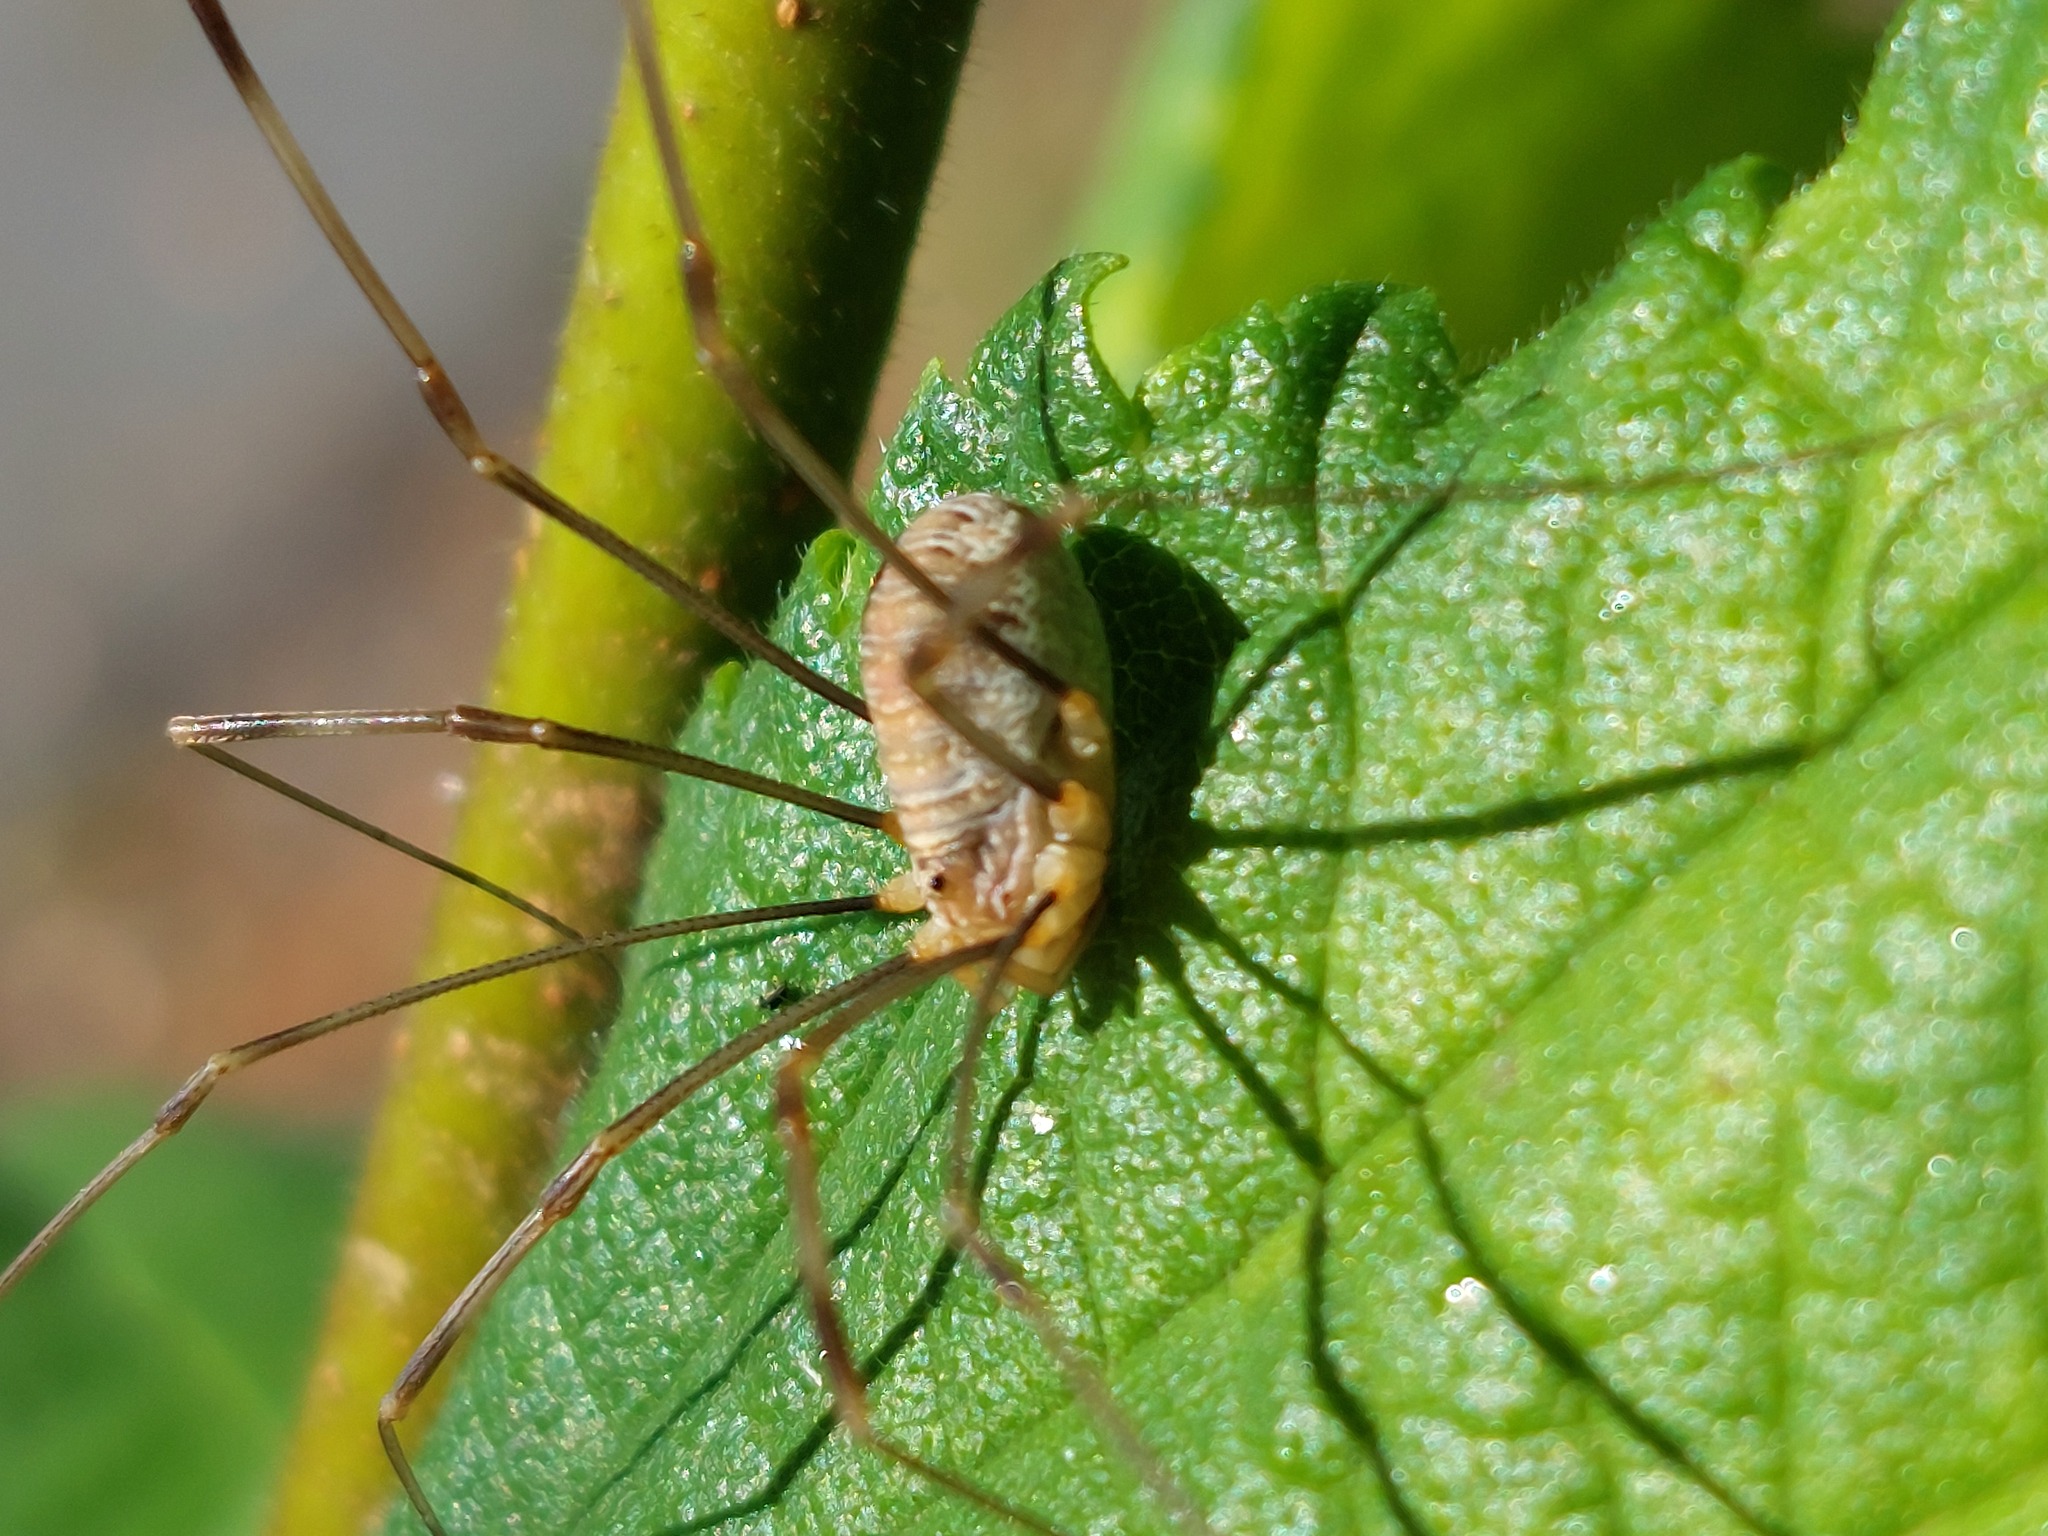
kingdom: Animalia
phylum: Arthropoda
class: Arachnida
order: Opiliones
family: Phalangiidae
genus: Opilio
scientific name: Opilio canestrinii
